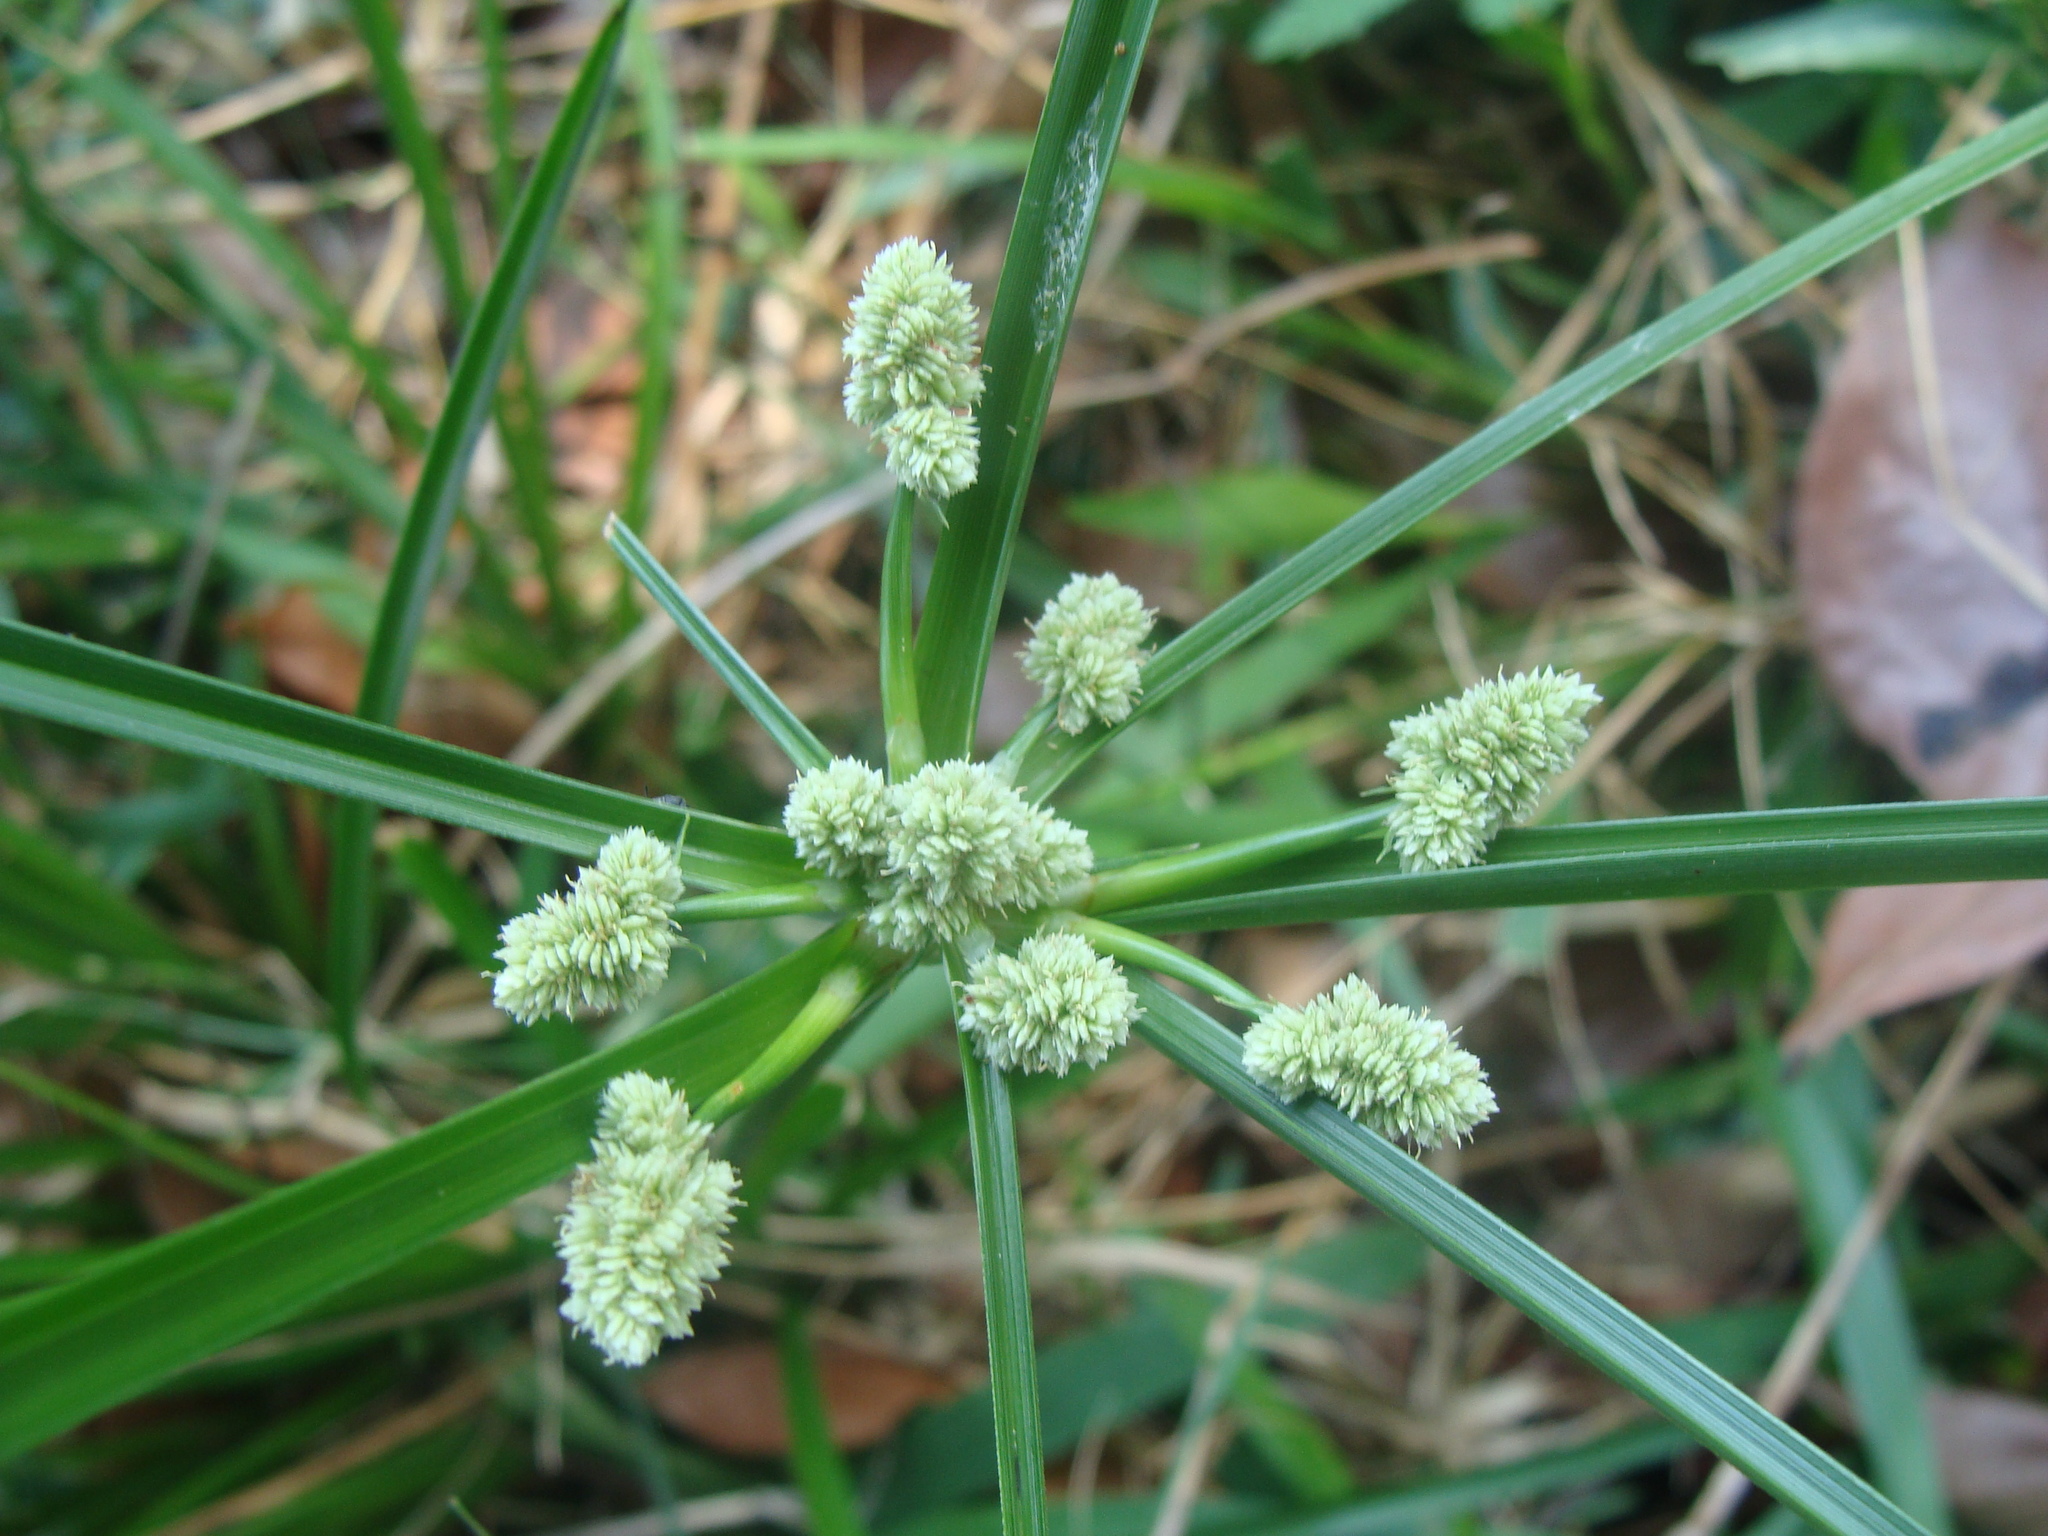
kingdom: Plantae
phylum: Tracheophyta
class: Liliopsida
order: Poales
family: Cyperaceae
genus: Cyperus
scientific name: Cyperus luzulae
